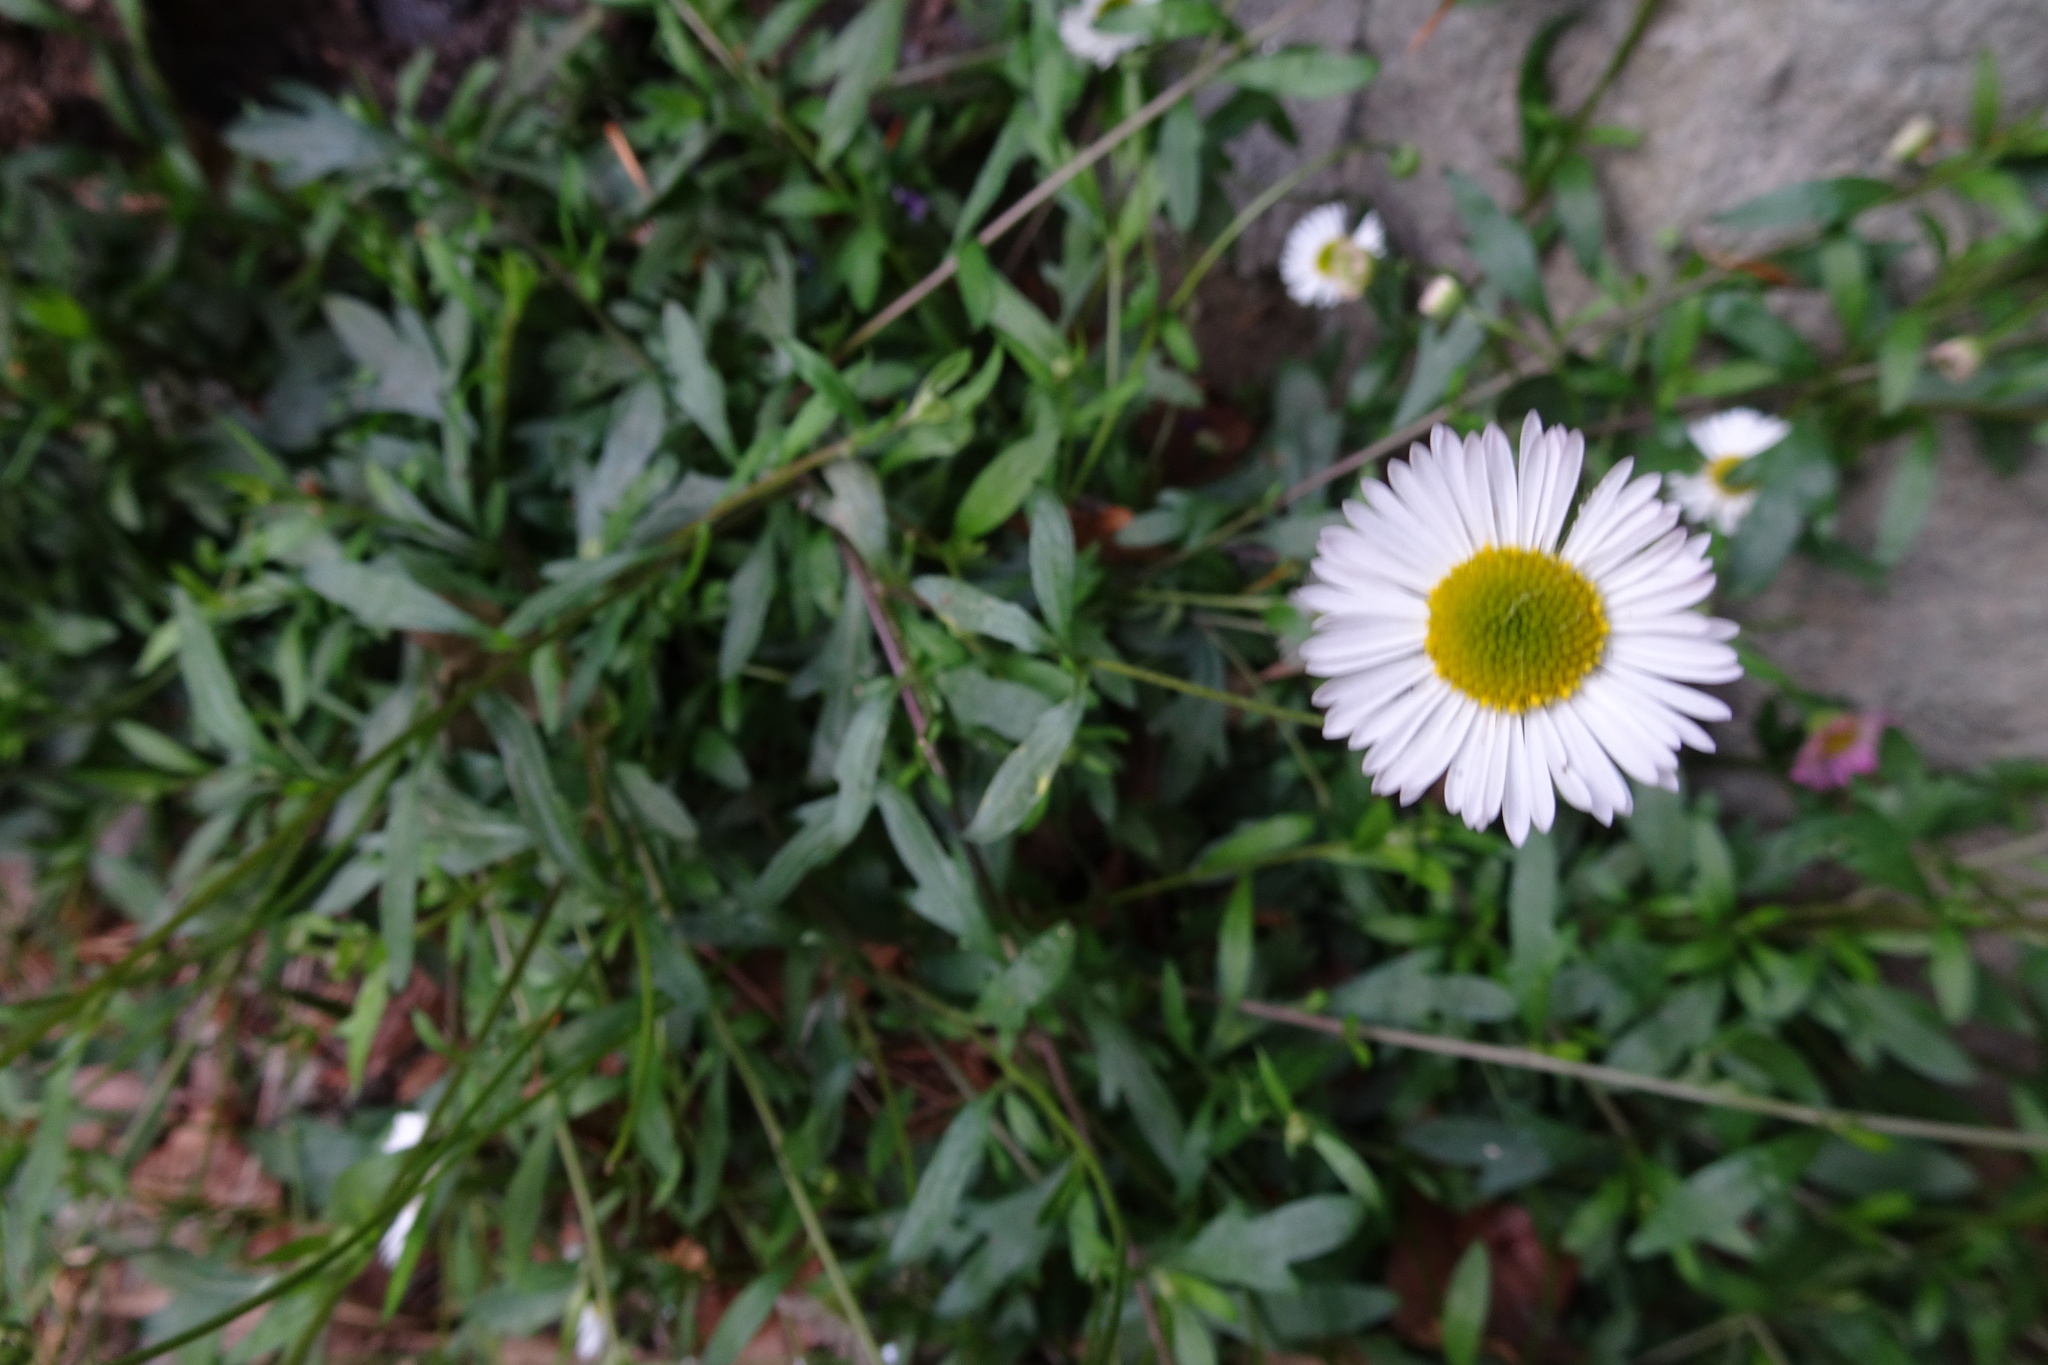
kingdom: Plantae
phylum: Tracheophyta
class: Magnoliopsida
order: Asterales
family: Asteraceae
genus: Erigeron
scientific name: Erigeron karvinskianus
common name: Mexican fleabane
